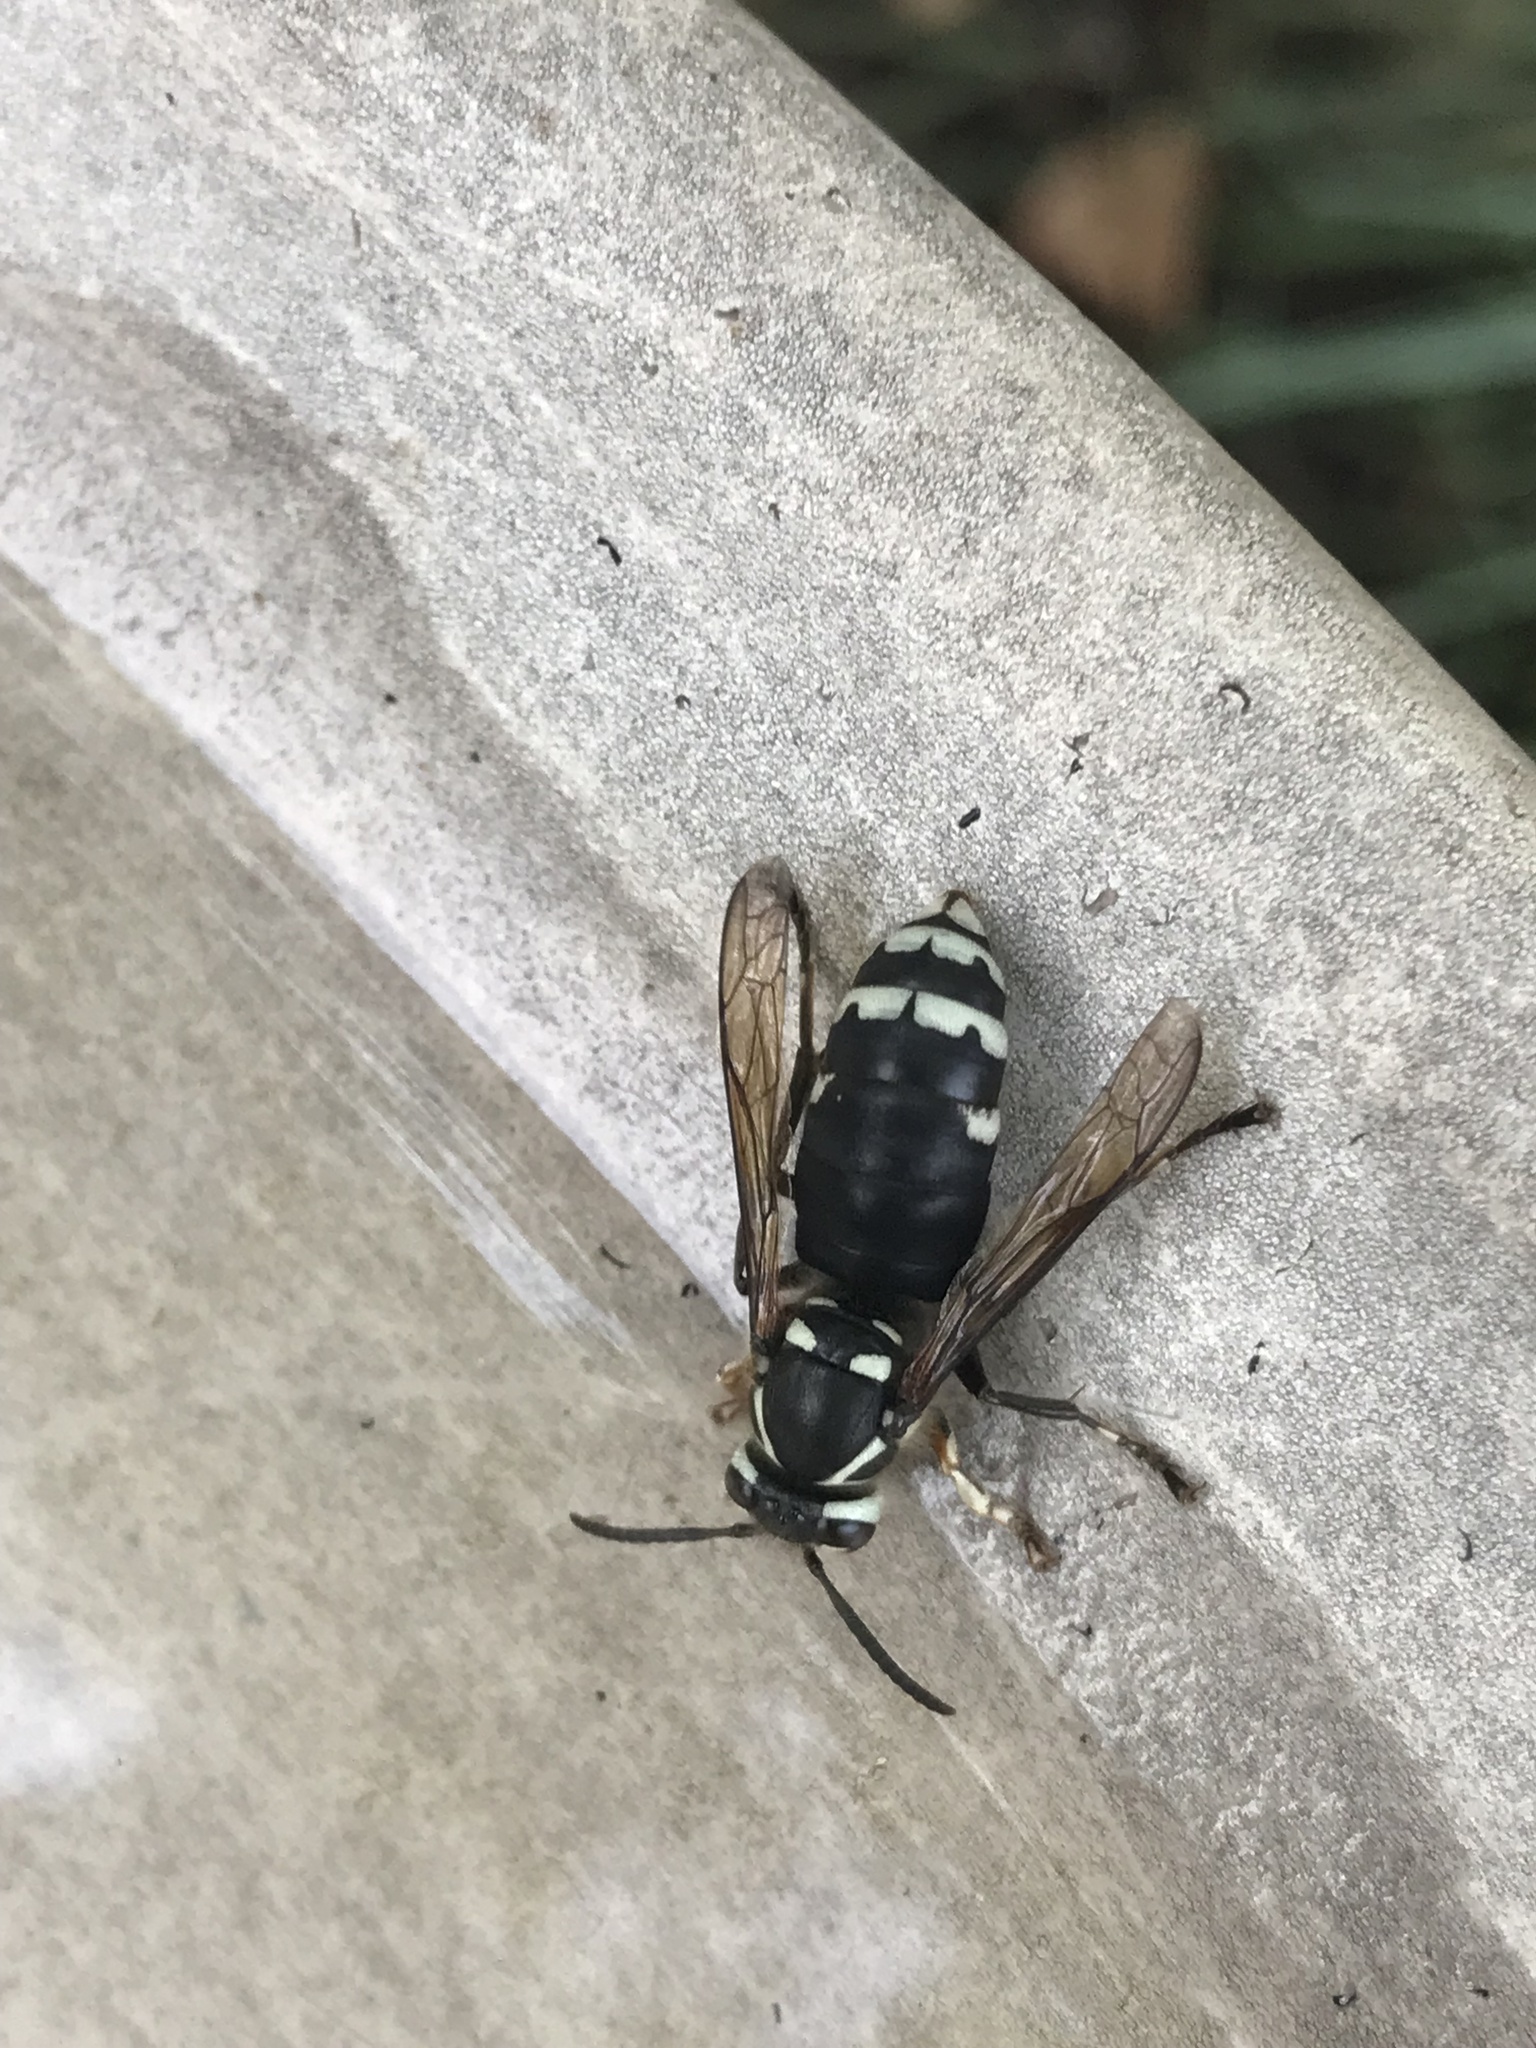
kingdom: Animalia
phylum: Arthropoda
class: Insecta
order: Hymenoptera
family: Vespidae
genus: Dolichovespula
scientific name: Dolichovespula maculata
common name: Bald-faced hornet
